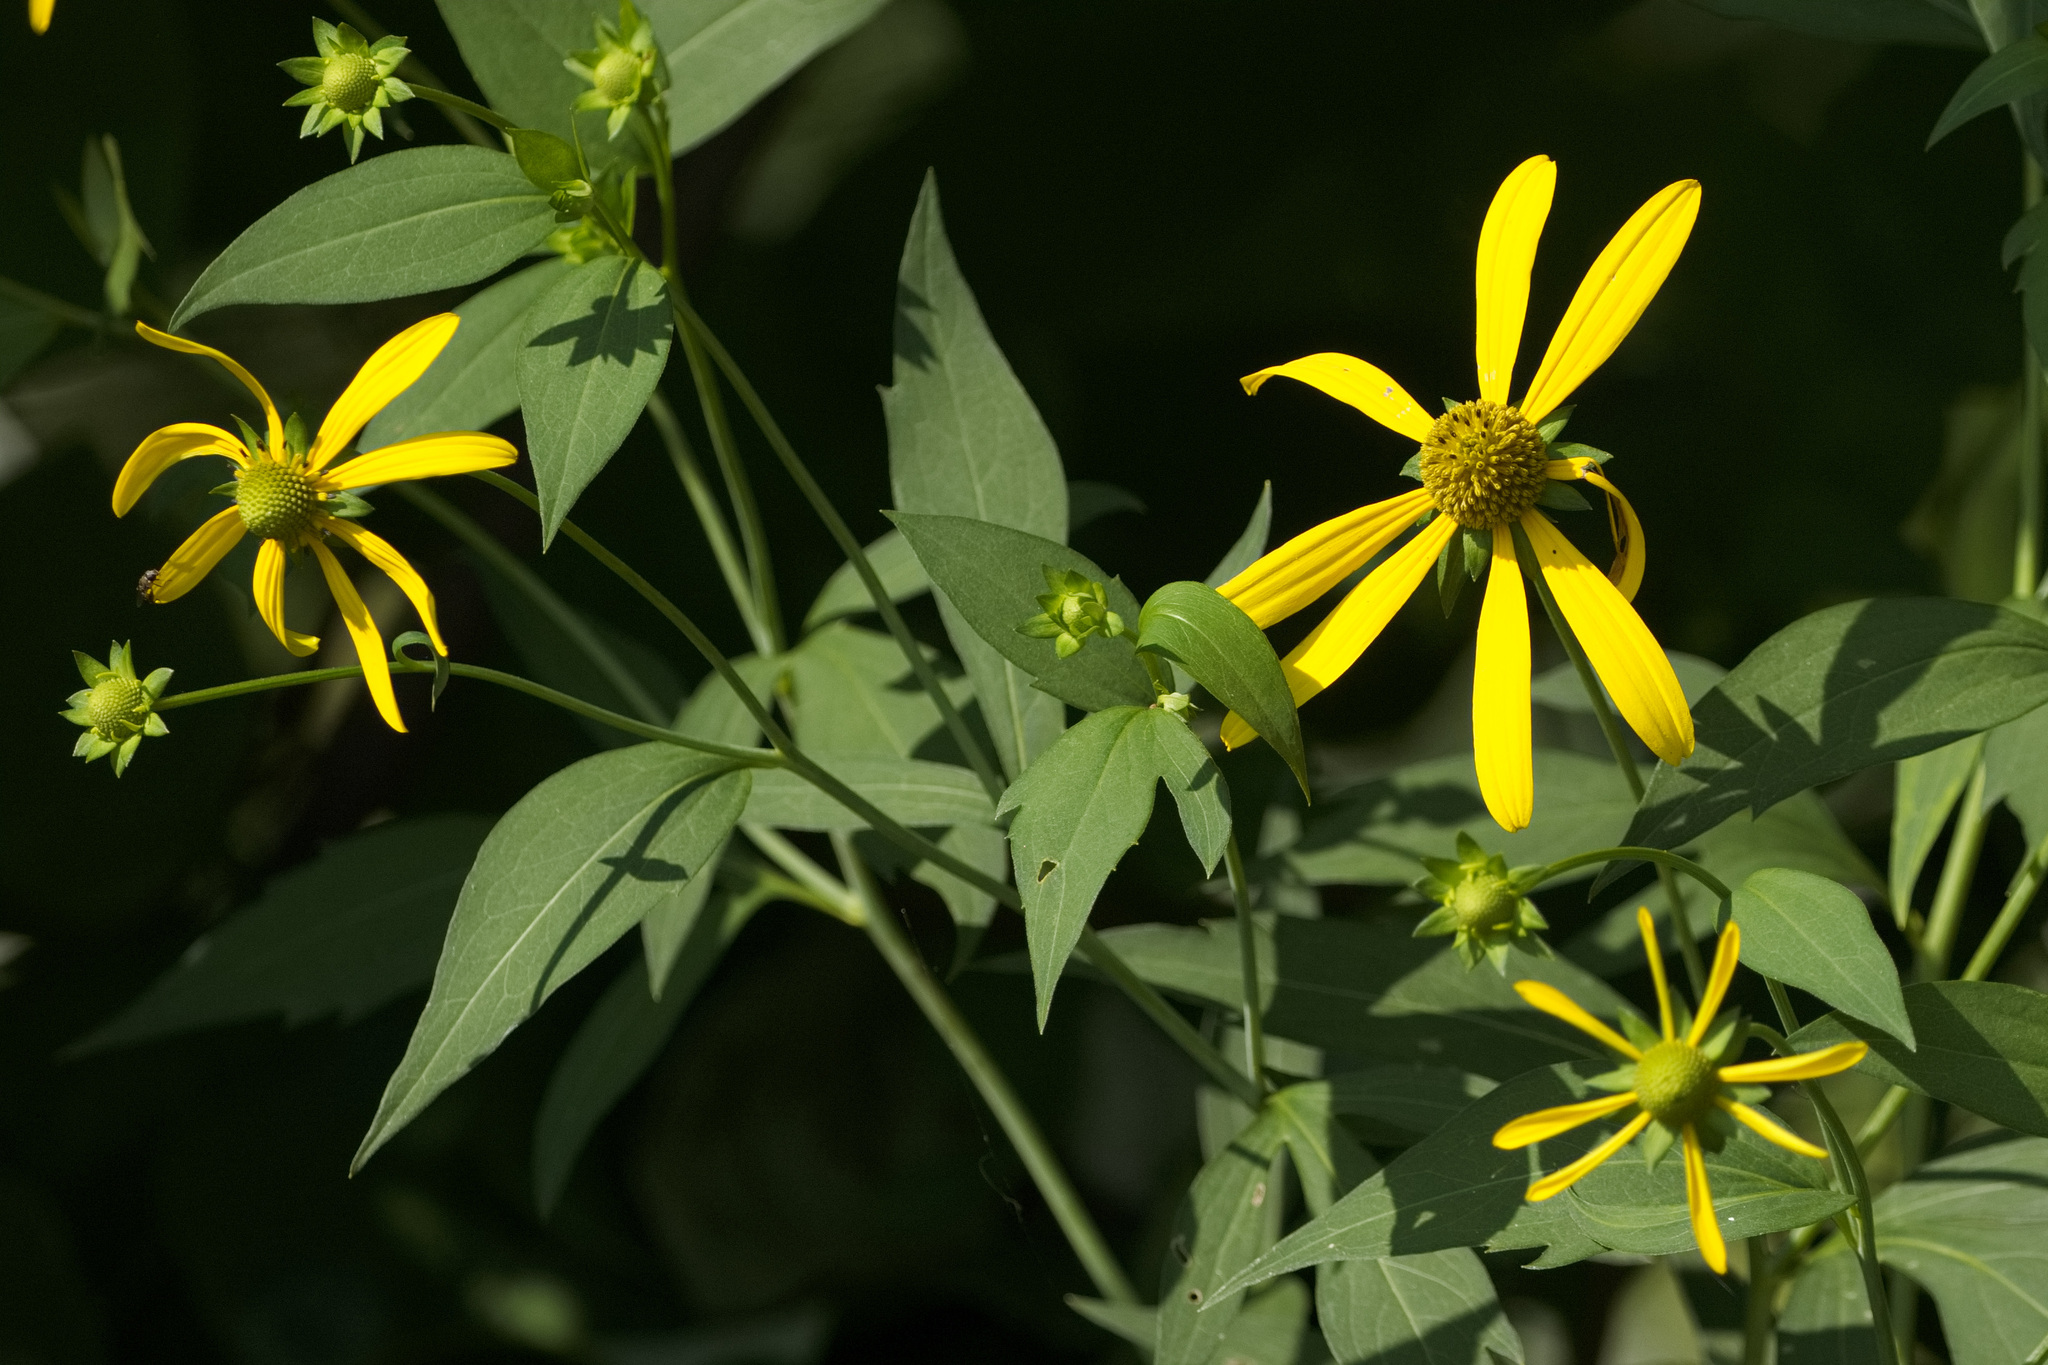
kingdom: Plantae
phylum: Tracheophyta
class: Magnoliopsida
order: Asterales
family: Asteraceae
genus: Rudbeckia
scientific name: Rudbeckia laciniata
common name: Coneflower
